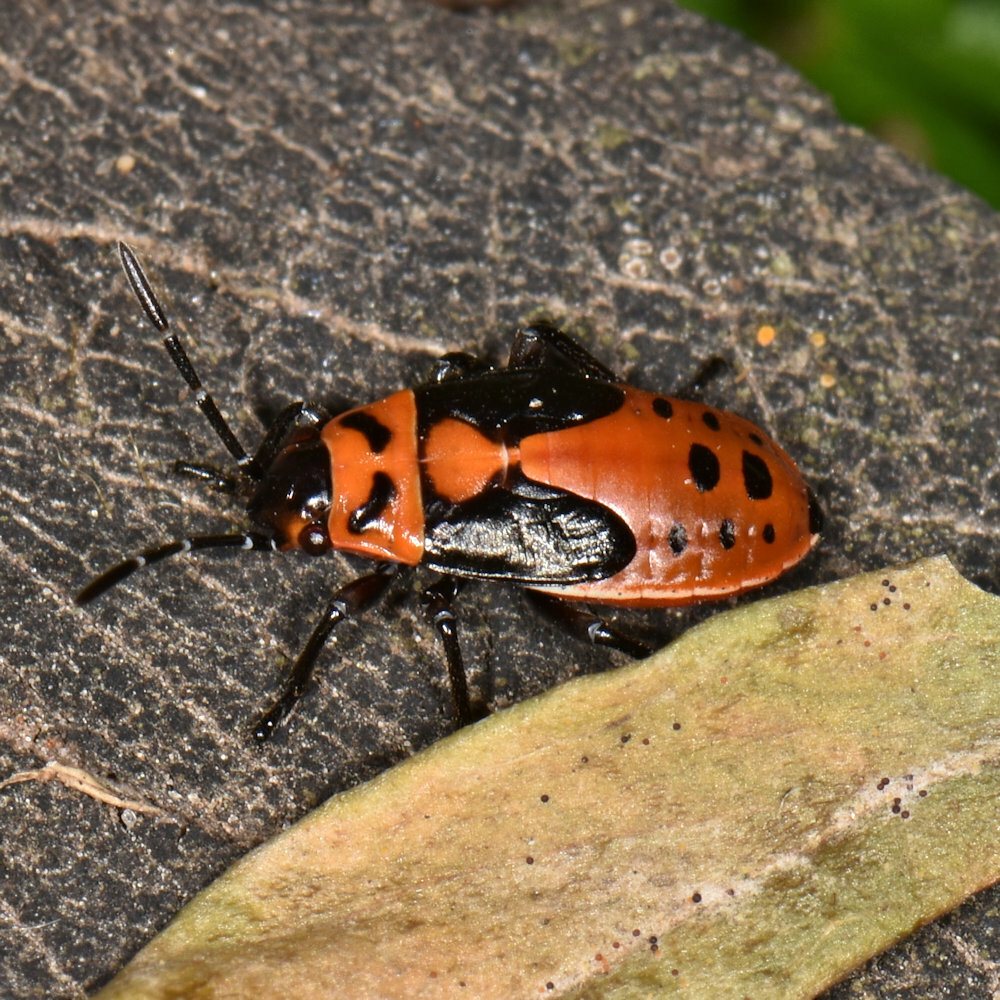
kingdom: Animalia
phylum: Arthropoda
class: Insecta
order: Hemiptera
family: Lygaeidae
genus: Lygaeus
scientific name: Lygaeus kalmii
